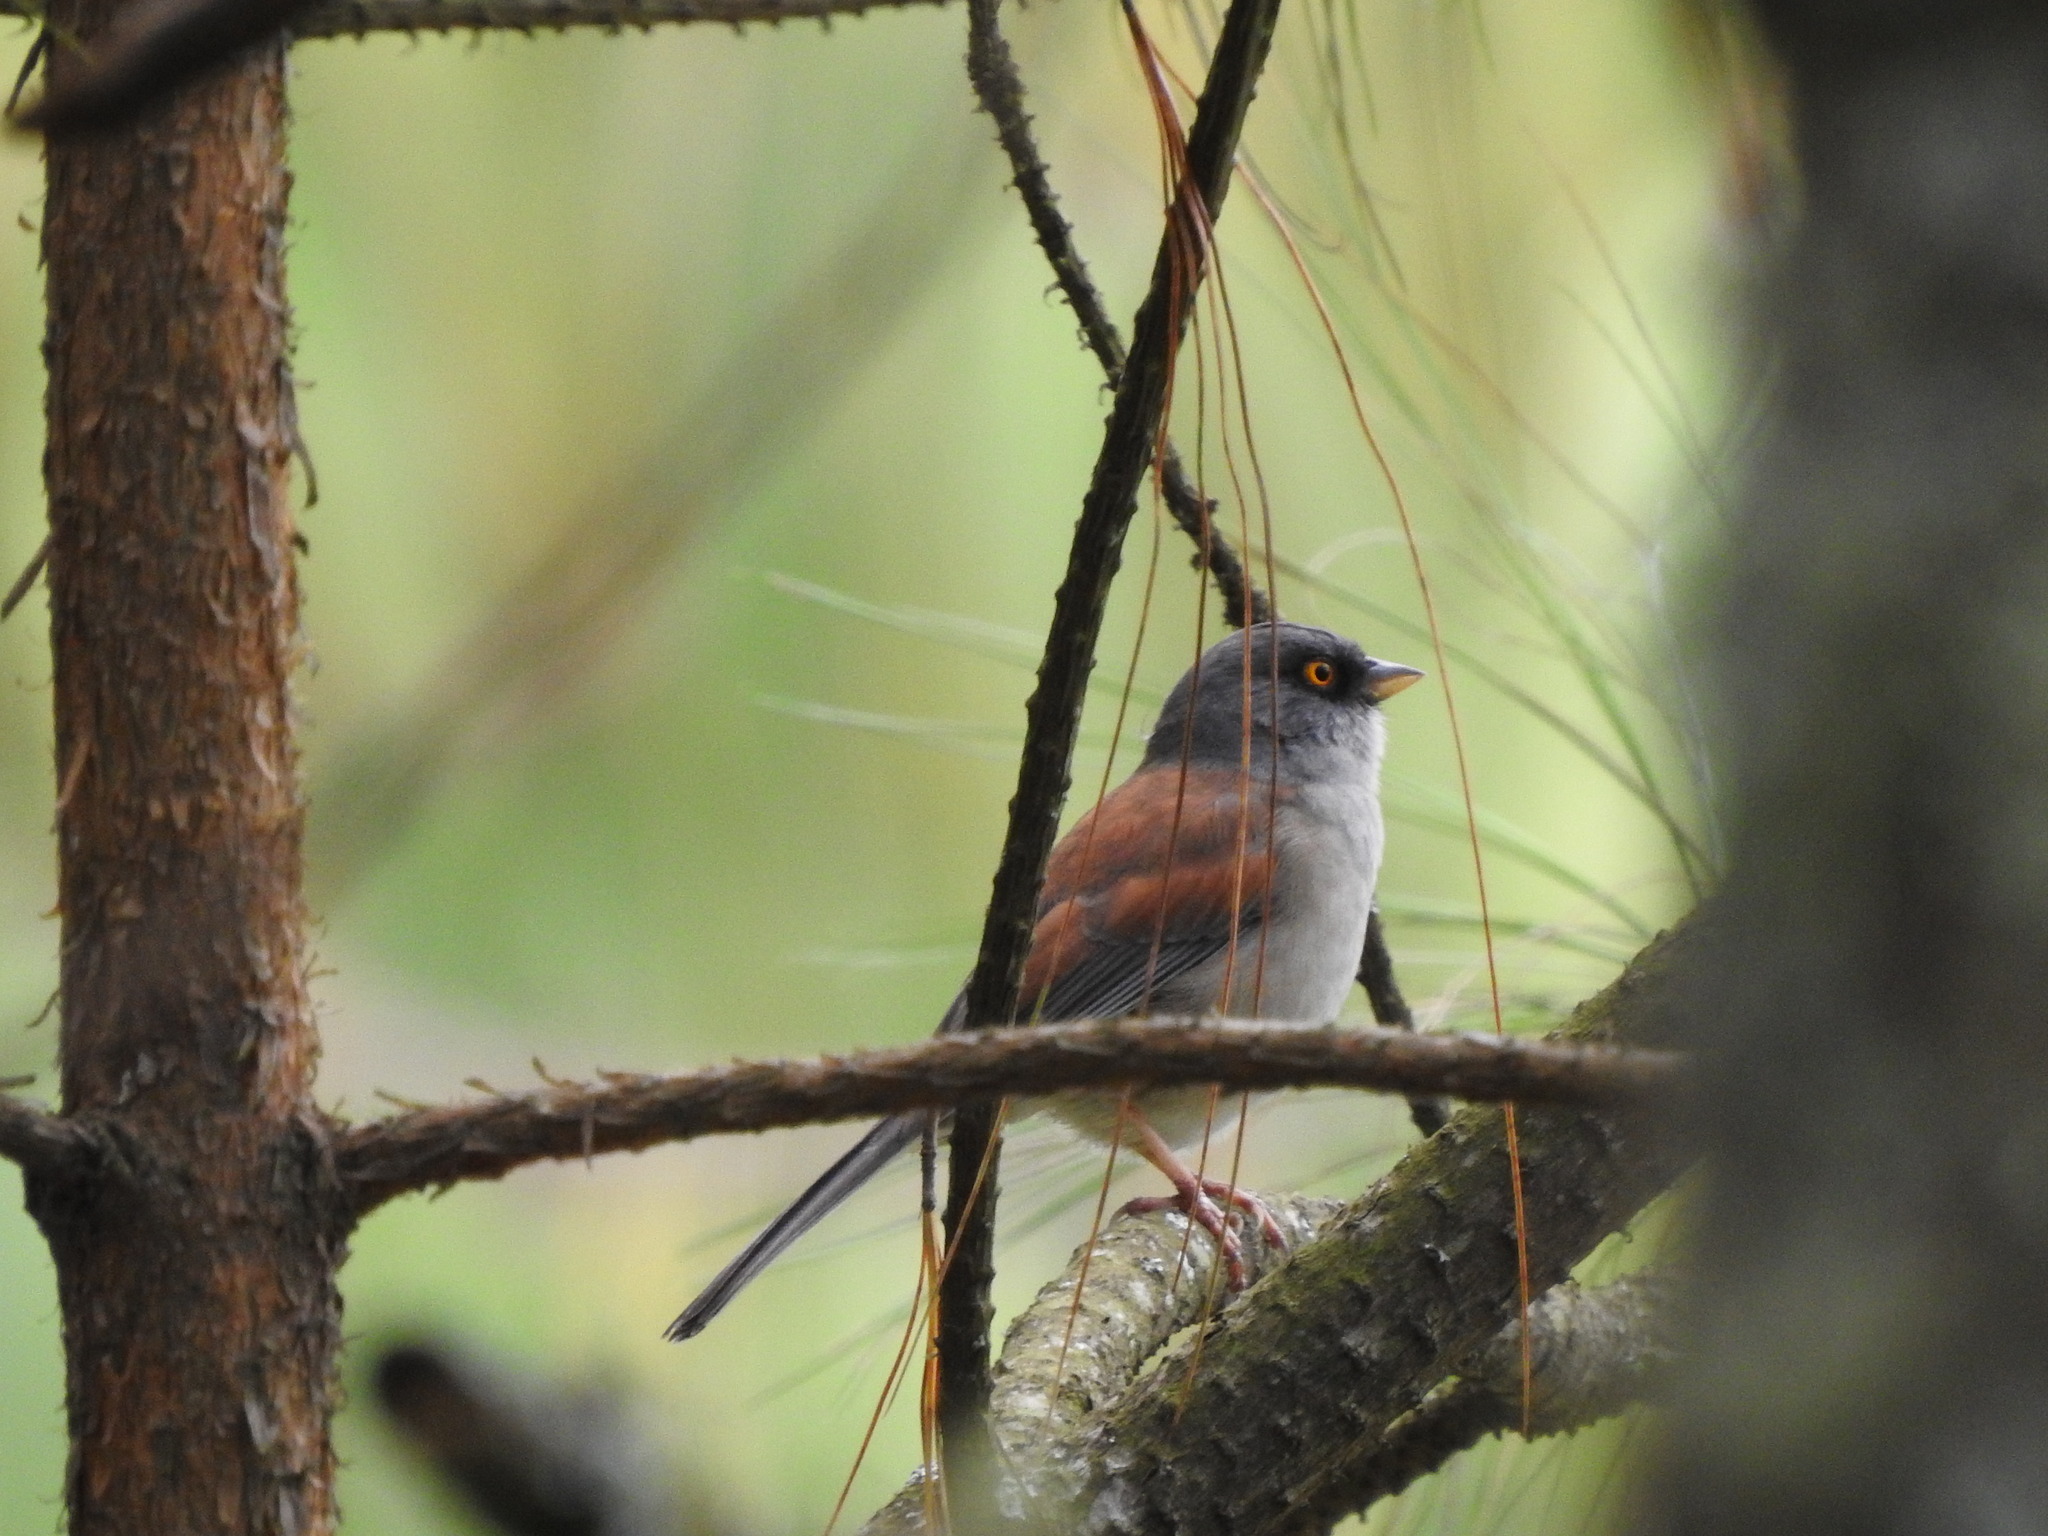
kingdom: Animalia
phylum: Chordata
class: Aves
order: Passeriformes
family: Passerellidae
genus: Junco
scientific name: Junco phaeonotus
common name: Yellow-eyed junco
